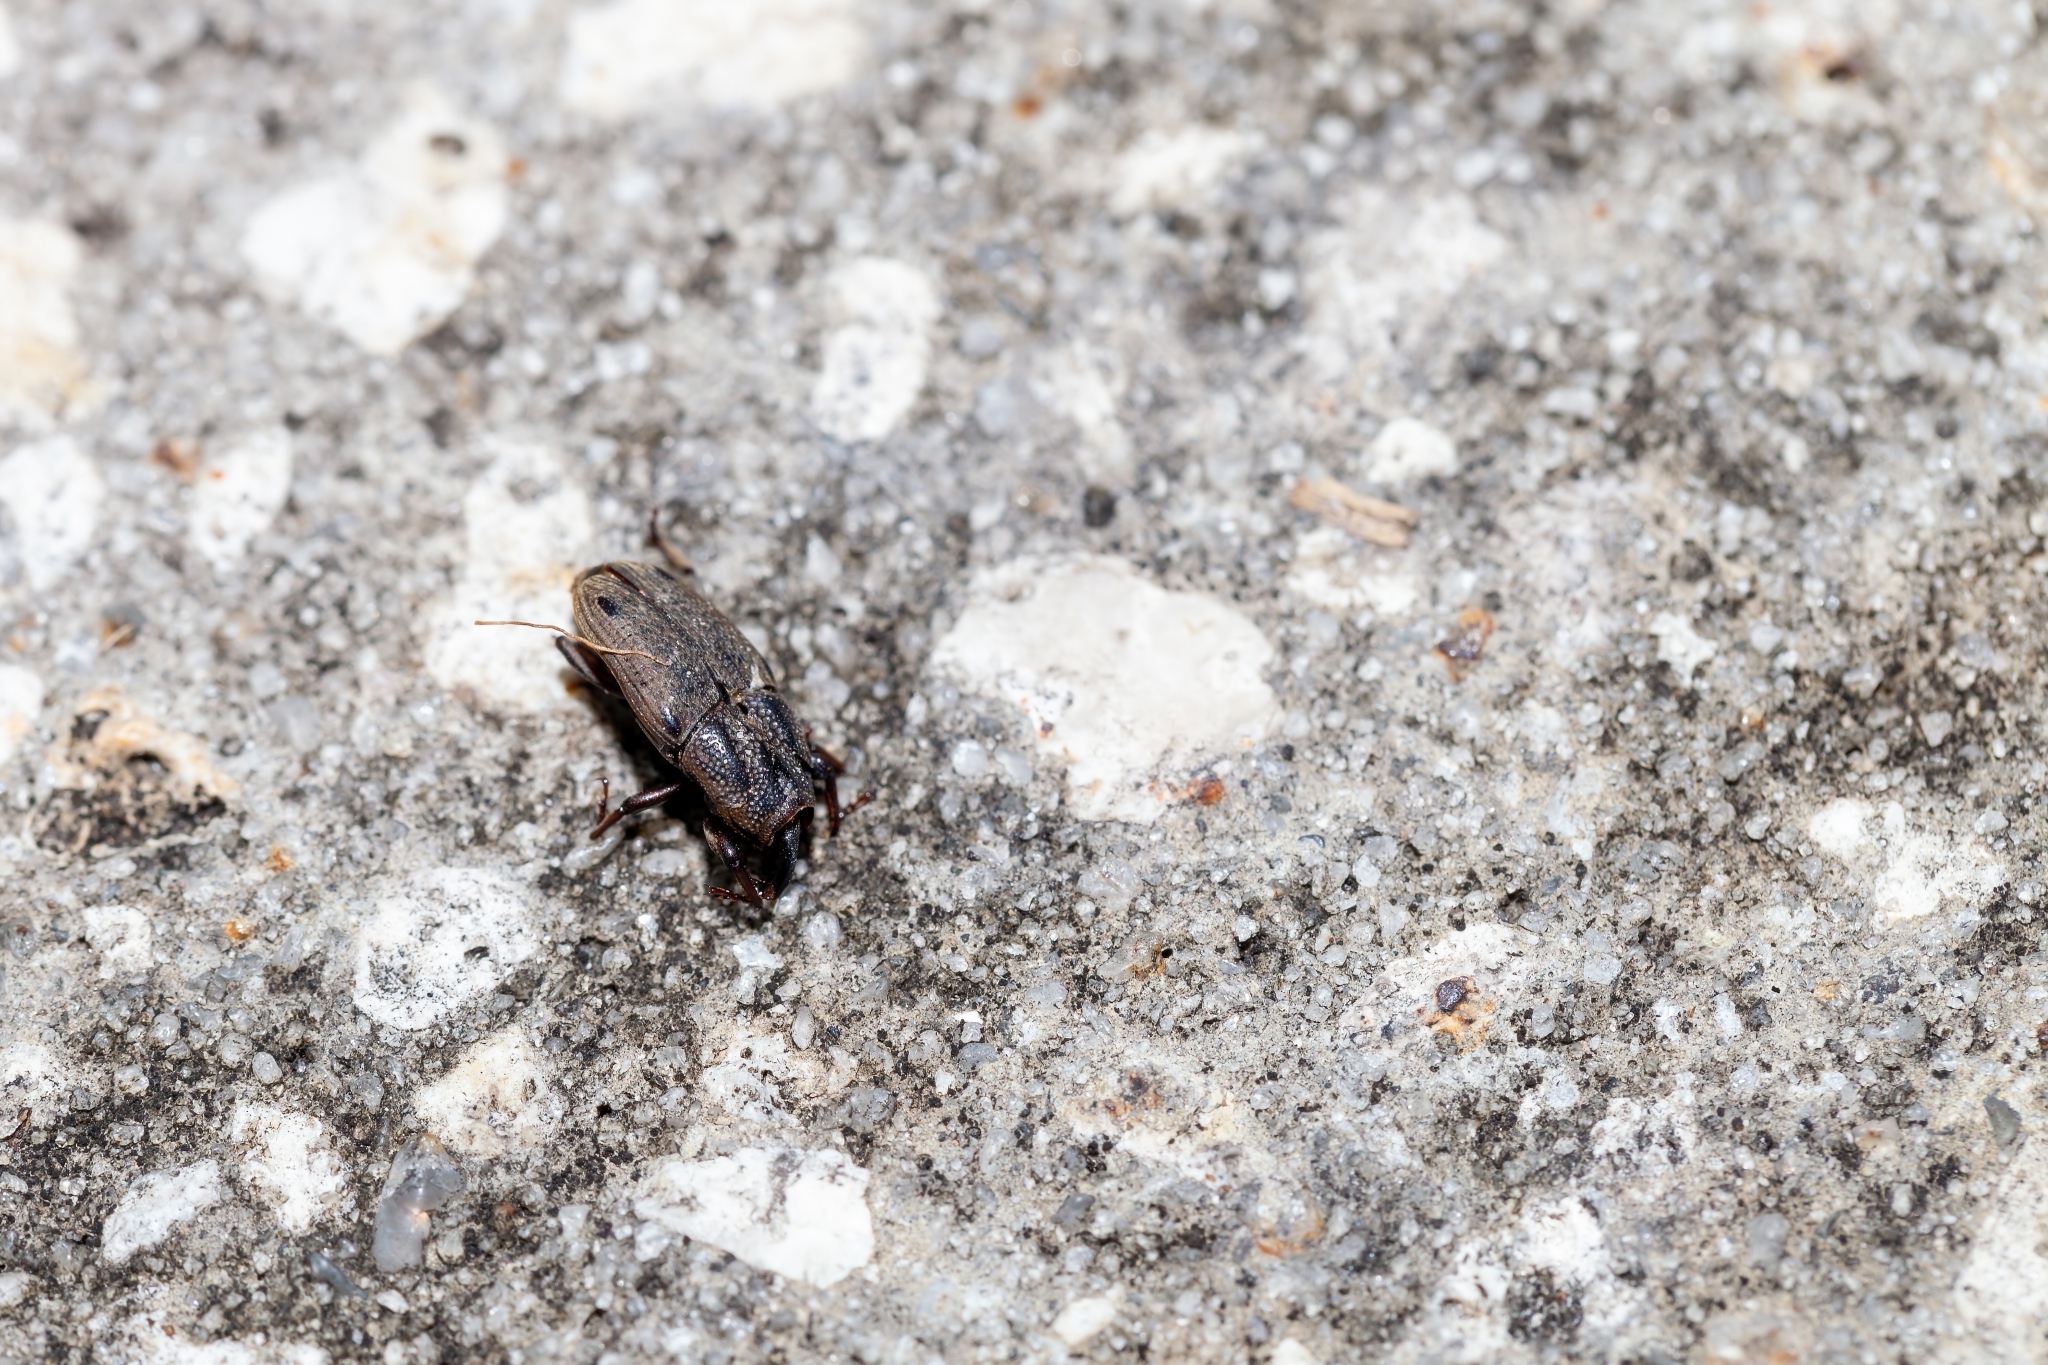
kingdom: Animalia
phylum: Arthropoda
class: Insecta
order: Coleoptera
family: Dryophthoridae
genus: Sphenophorus
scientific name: Sphenophorus venatus
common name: Hunting billbug
